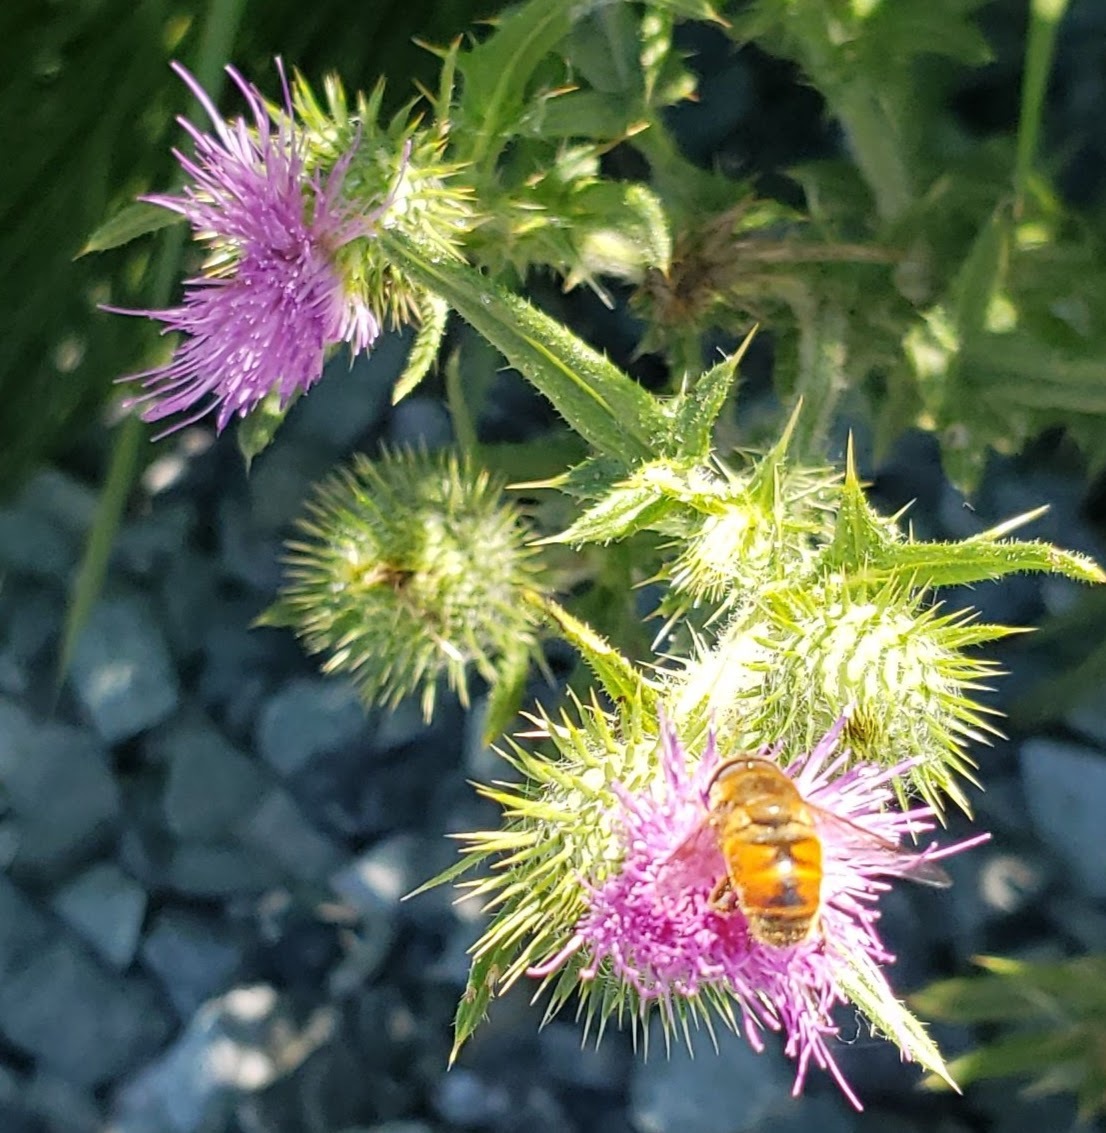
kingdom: Animalia
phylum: Arthropoda
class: Insecta
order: Diptera
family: Syrphidae
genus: Eristalis
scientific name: Eristalis tenax
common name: Drone fly
